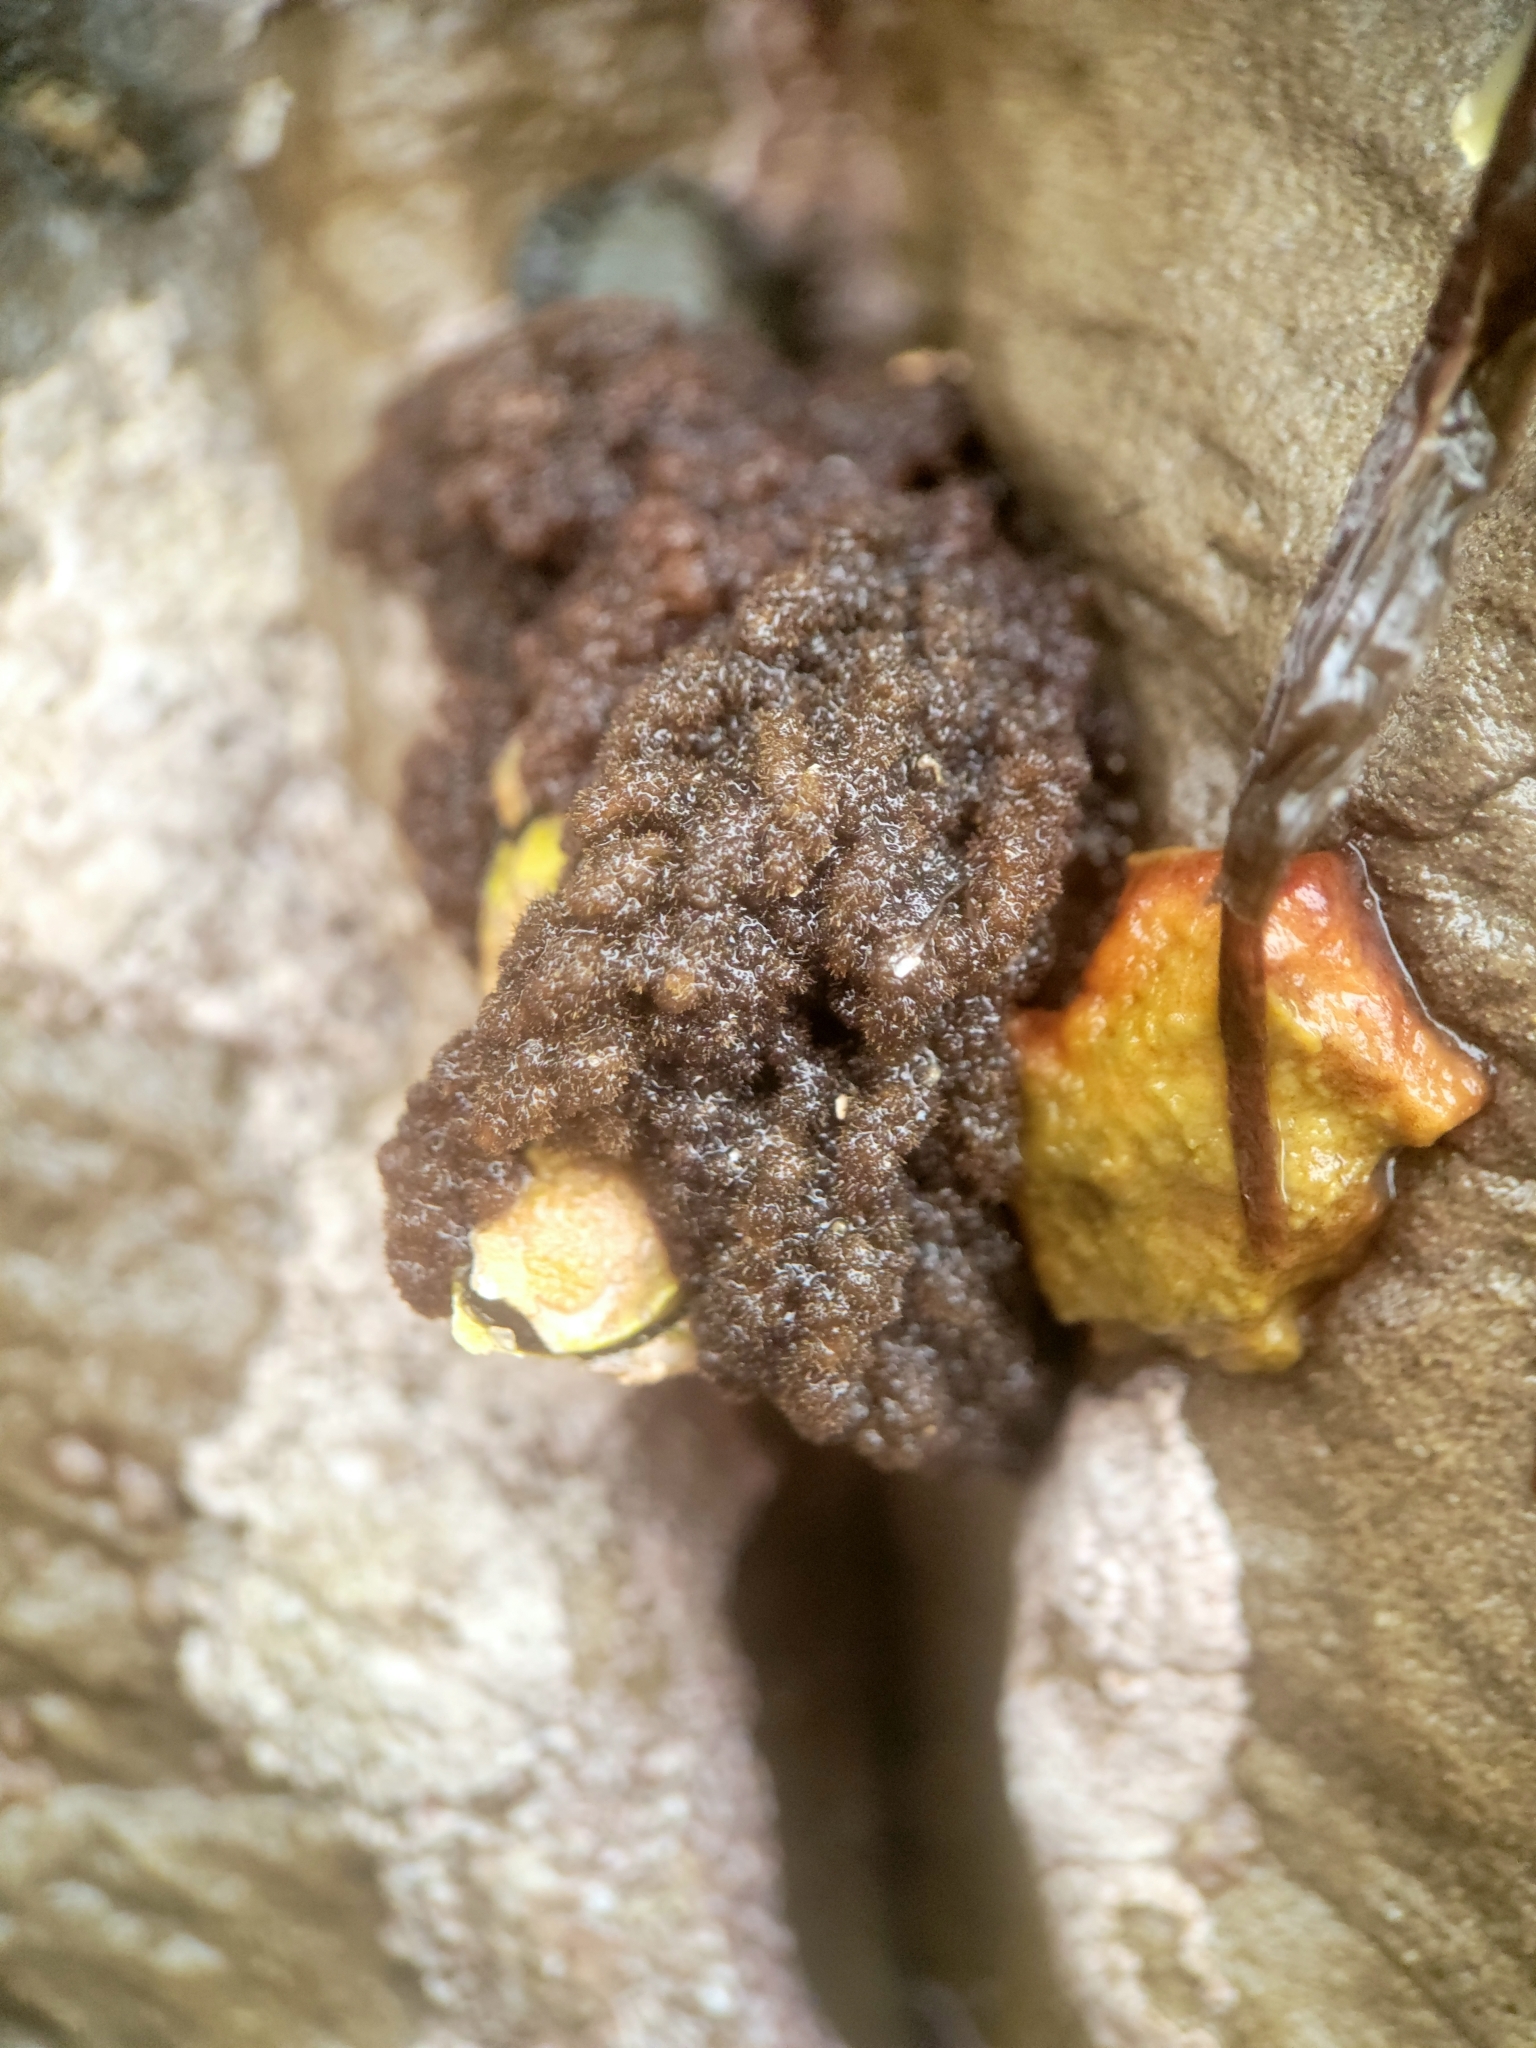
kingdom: Plantae
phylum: Rhodophyta
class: Florideophyceae
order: Ceramiales
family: Callithamniaceae
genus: Callithamnion
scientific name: Callithamnion pikeanum
